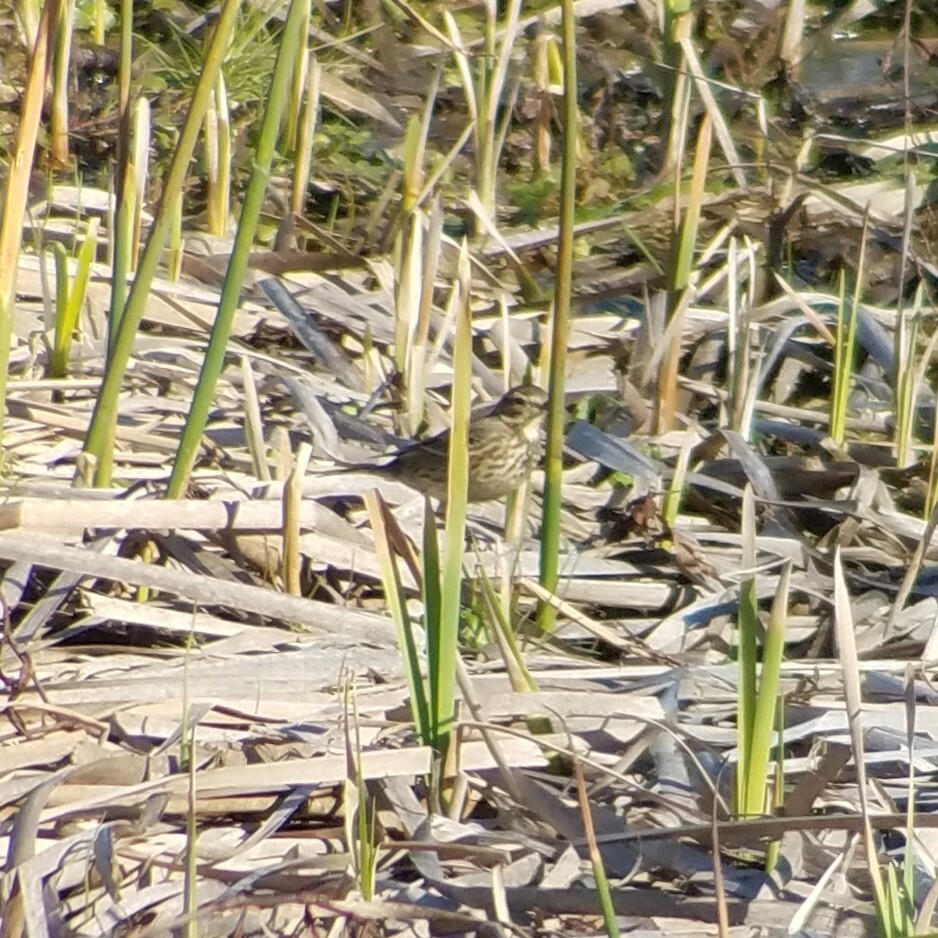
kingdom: Animalia
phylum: Chordata
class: Aves
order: Passeriformes
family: Motacillidae
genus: Anthus
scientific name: Anthus rubescens
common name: Buff-bellied pipit
